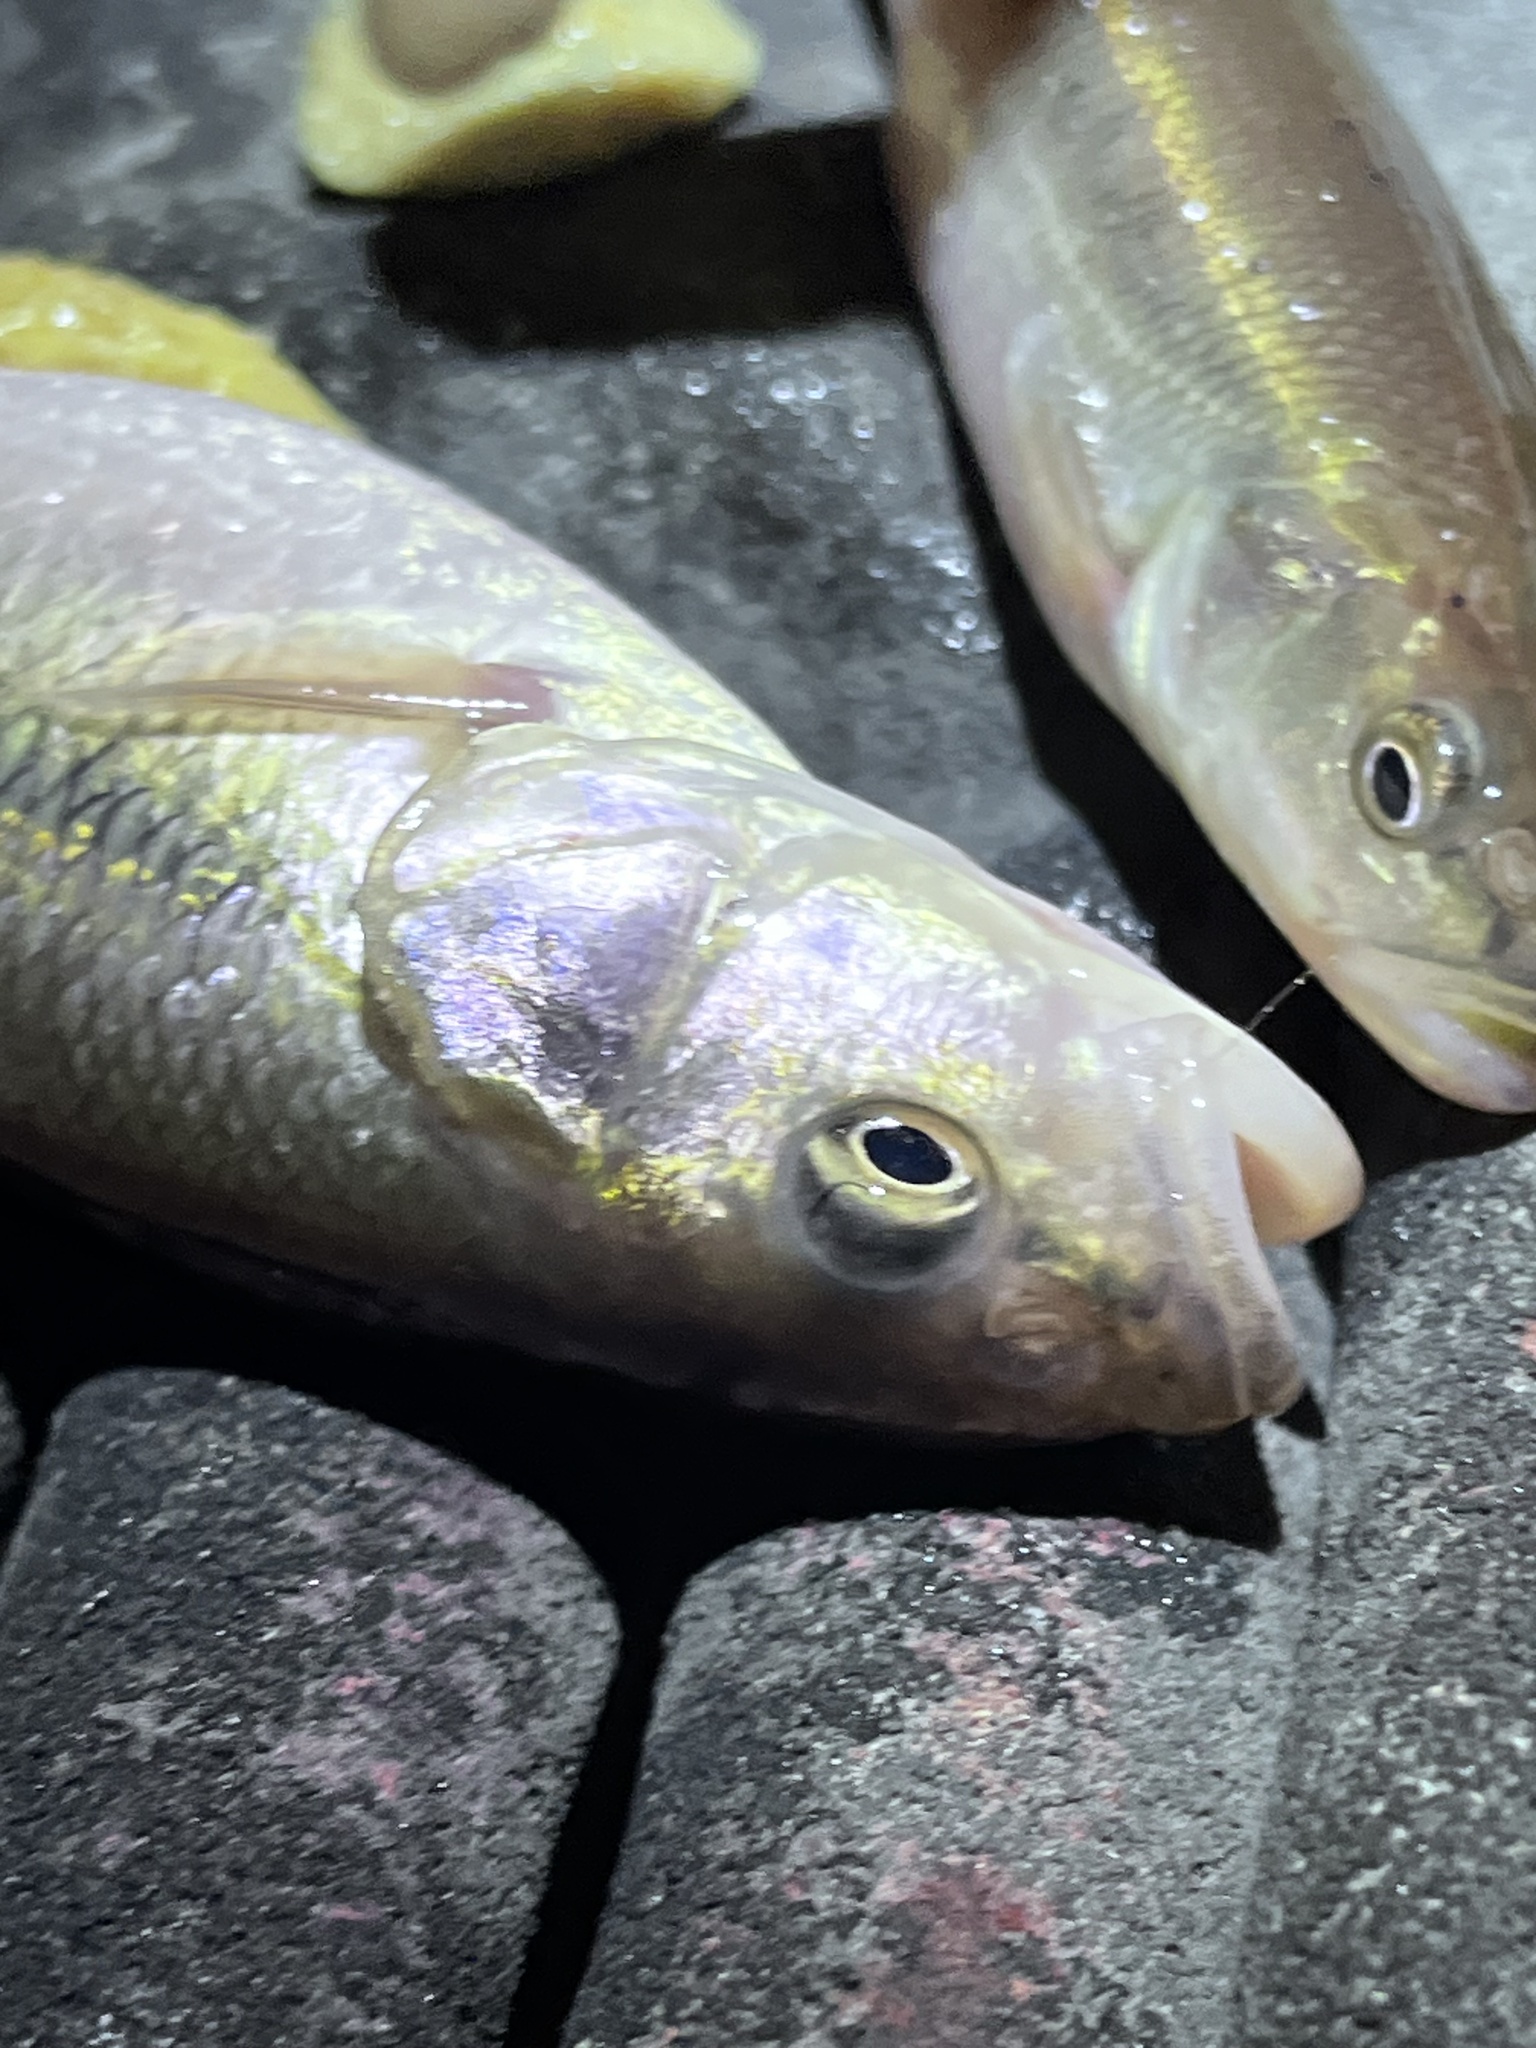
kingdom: Animalia
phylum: Chordata
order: Cypriniformes
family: Cyprinidae
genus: Semotilus
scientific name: Semotilus atromaculatus
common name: Creek chub
